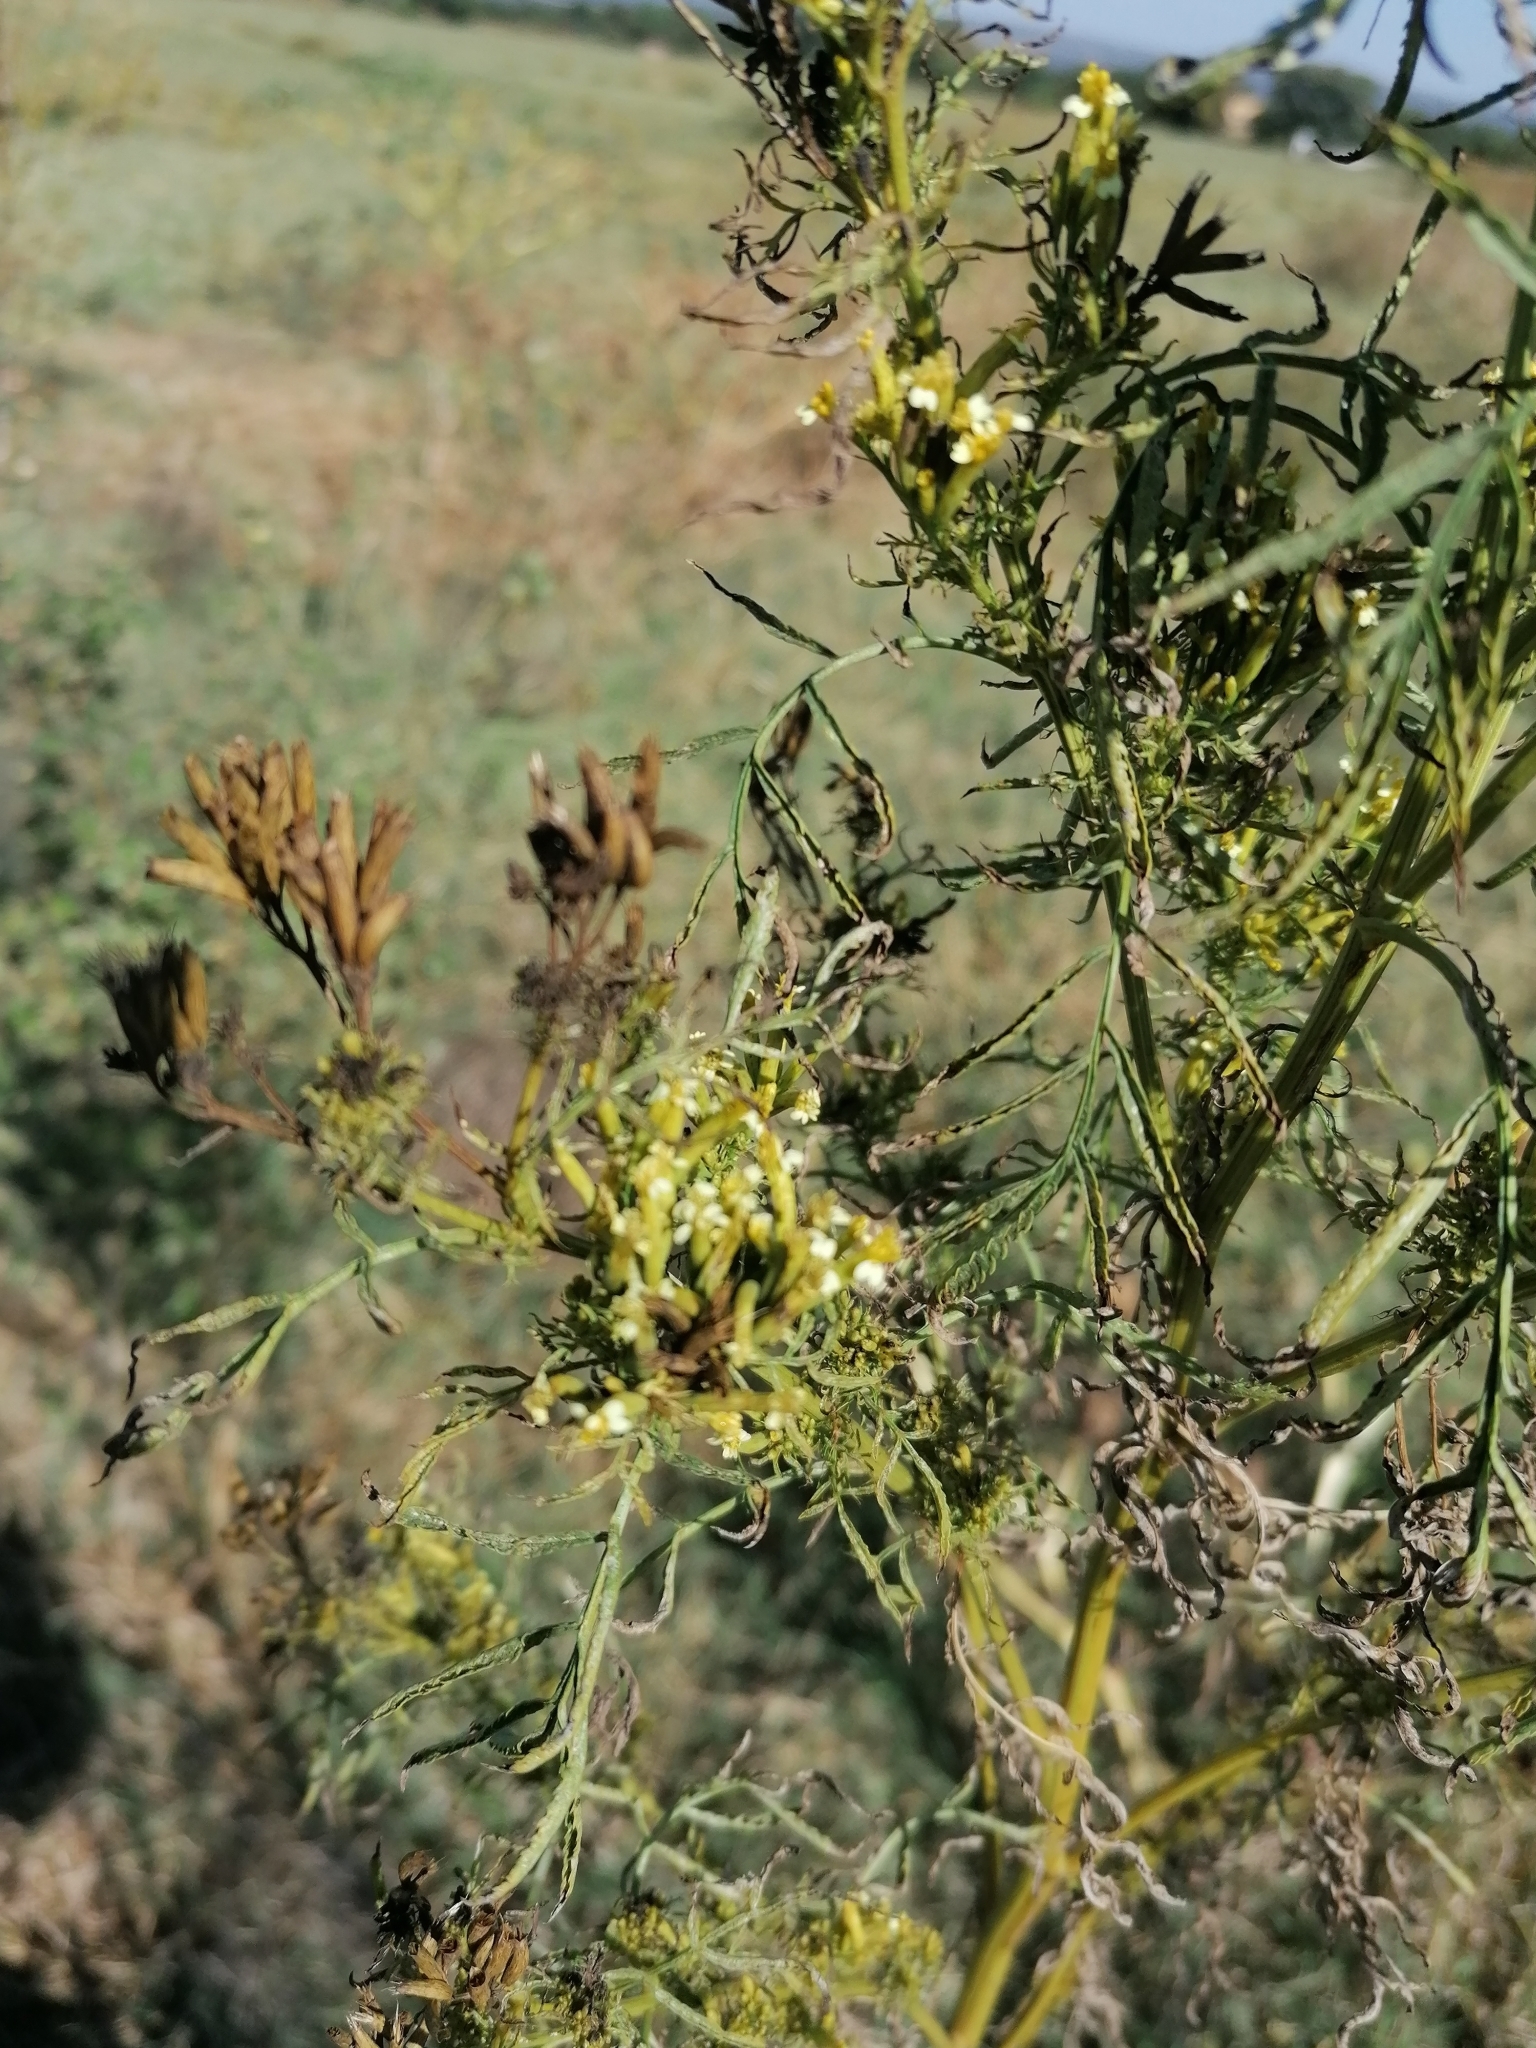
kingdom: Plantae
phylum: Tracheophyta
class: Magnoliopsida
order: Asterales
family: Asteraceae
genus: Tagetes
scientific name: Tagetes minuta
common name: Muster john henry
